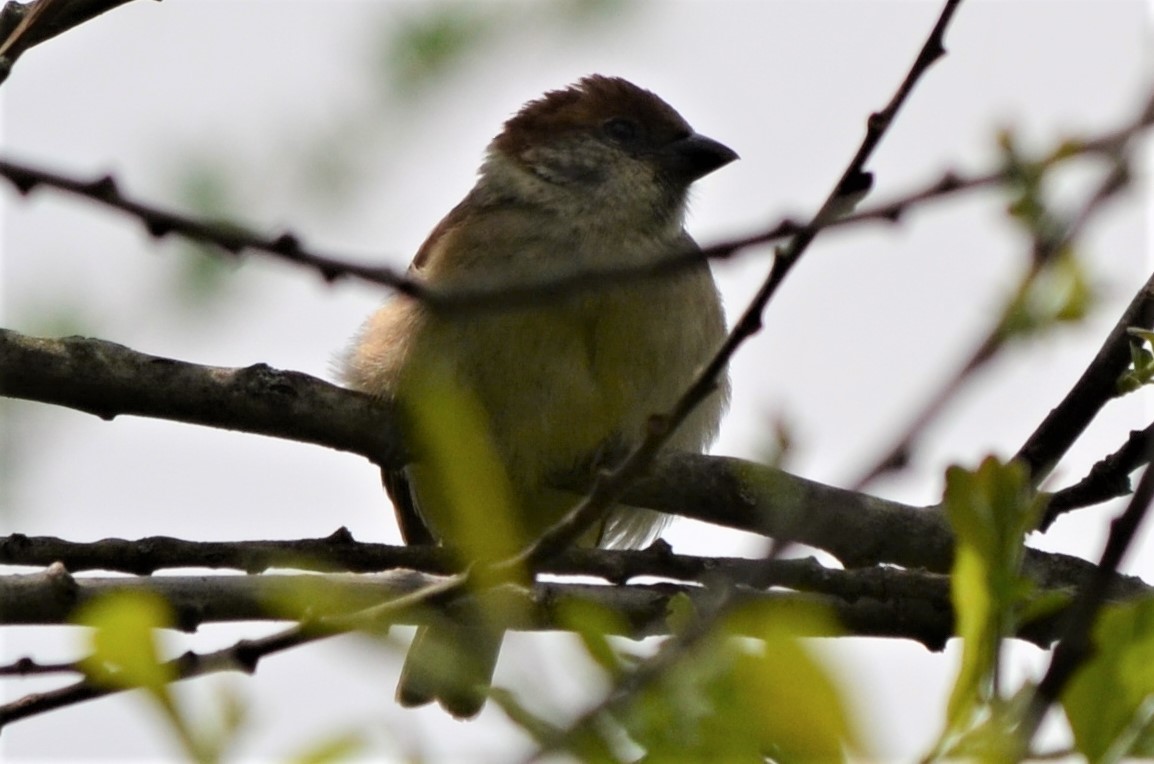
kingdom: Animalia
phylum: Chordata
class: Aves
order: Passeriformes
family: Passeridae
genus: Passer
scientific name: Passer montanus
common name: Eurasian tree sparrow
